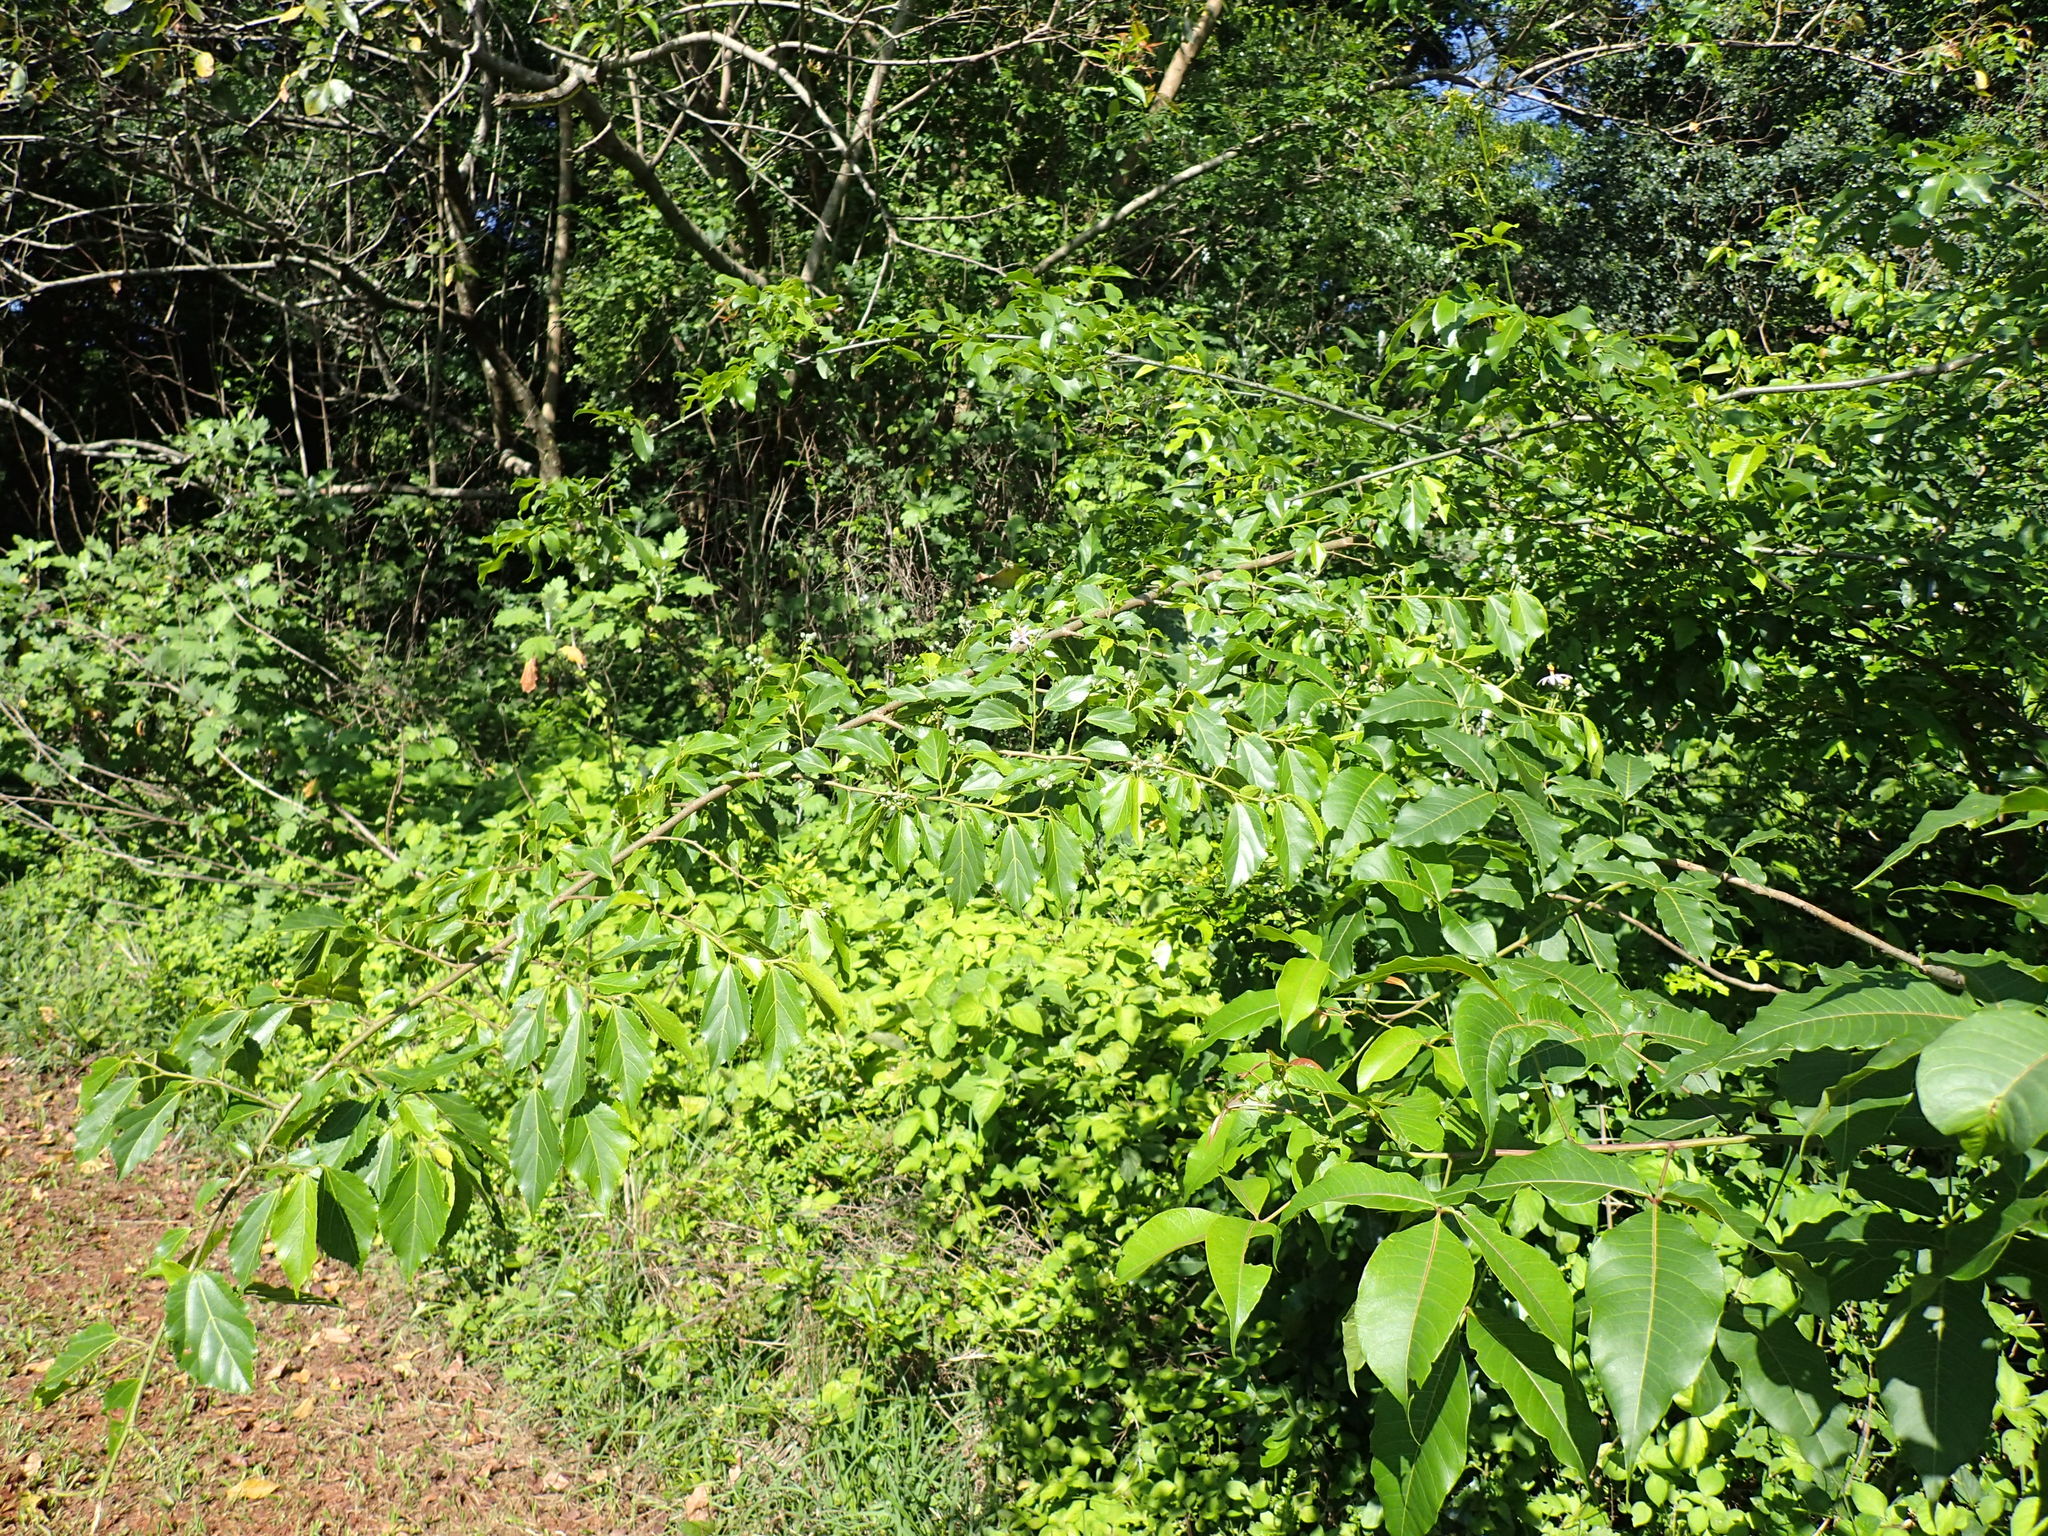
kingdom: Plantae
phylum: Tracheophyta
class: Magnoliopsida
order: Malvales
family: Malvaceae
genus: Grewia
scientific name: Grewia occidentalis
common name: Crossberry
